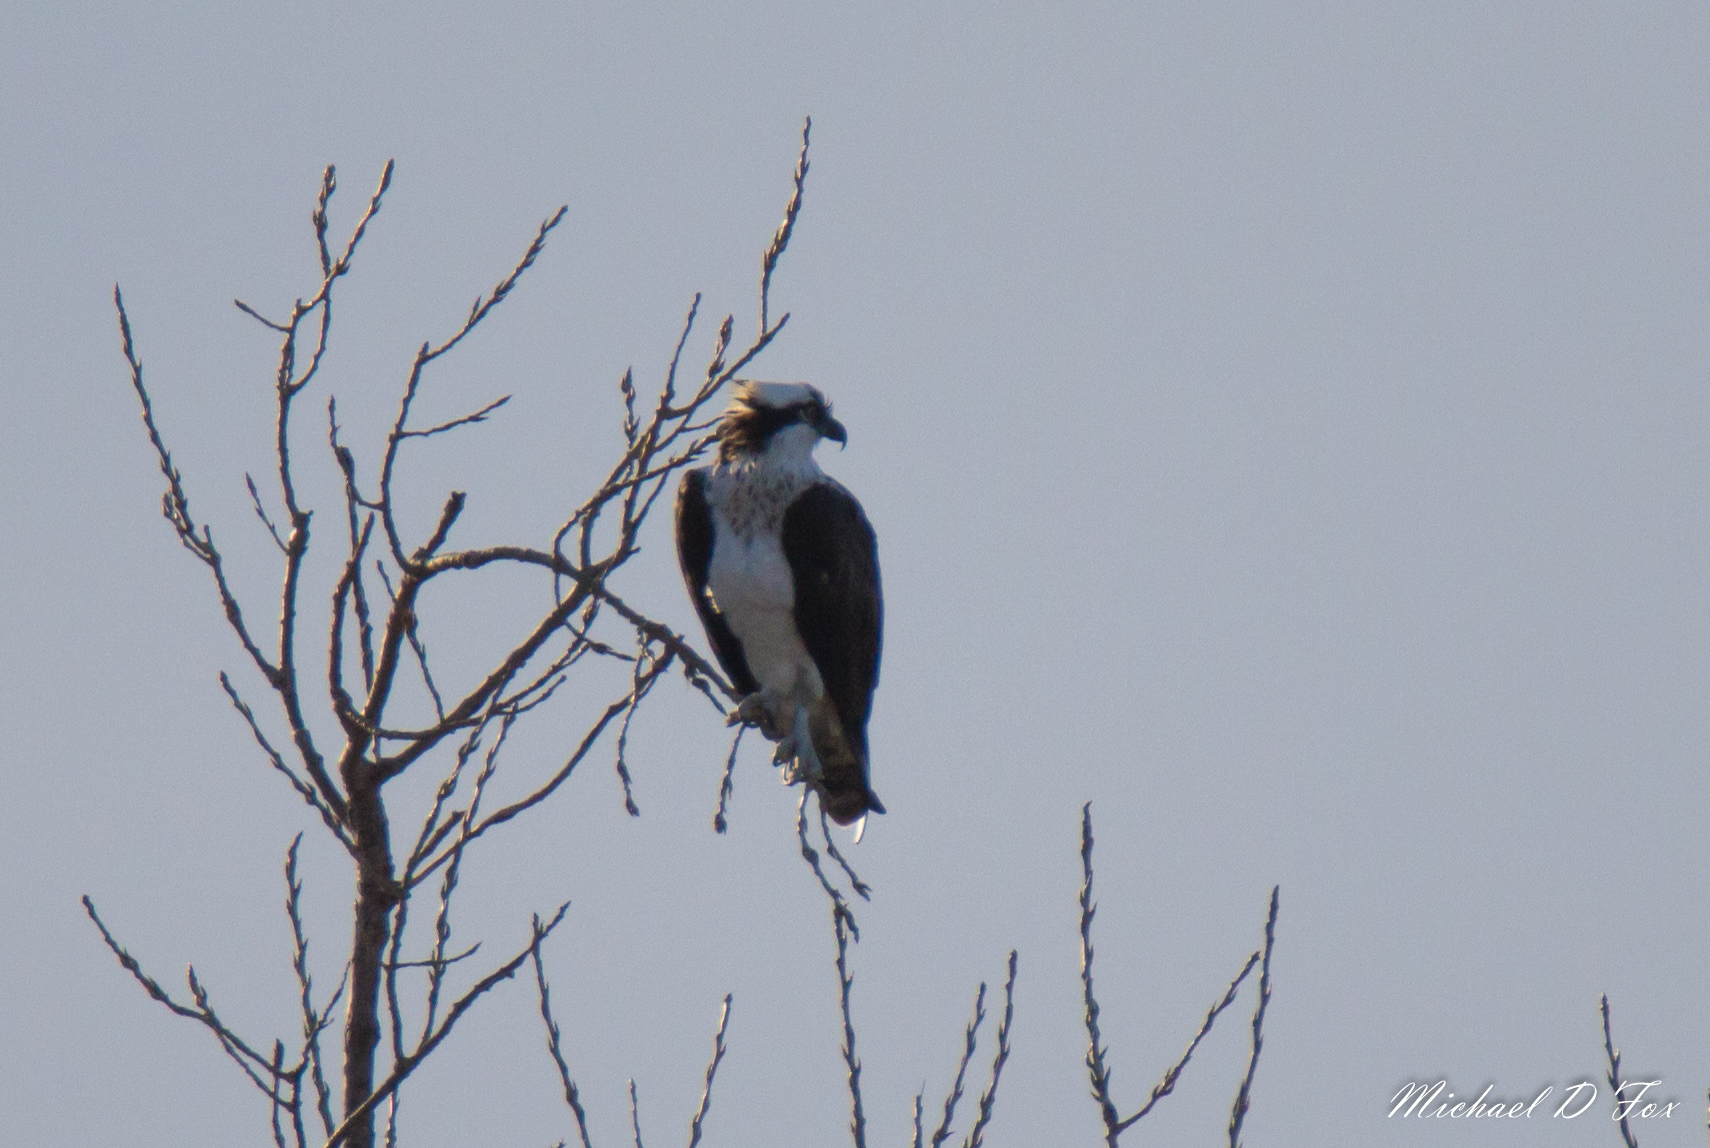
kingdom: Animalia
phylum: Chordata
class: Aves
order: Accipitriformes
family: Pandionidae
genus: Pandion
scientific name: Pandion haliaetus
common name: Osprey
